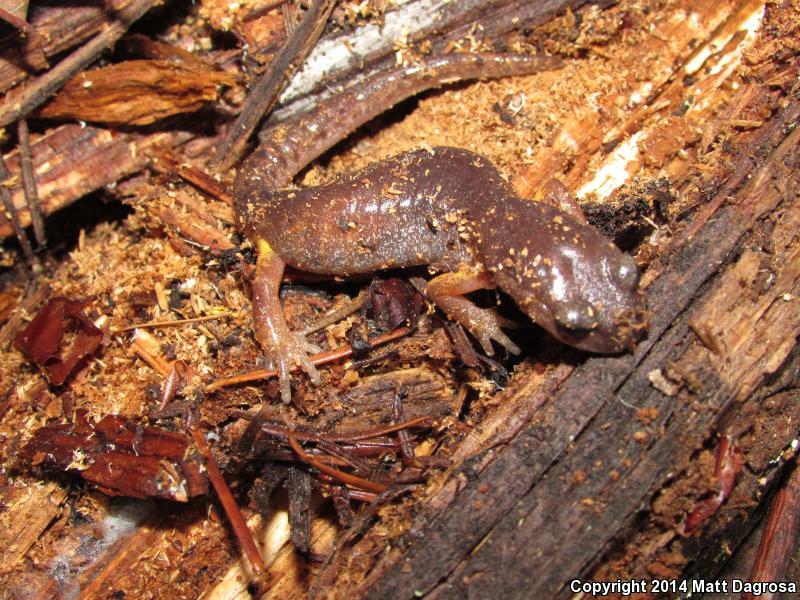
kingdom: Animalia
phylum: Chordata
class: Amphibia
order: Caudata
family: Plethodontidae
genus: Ensatina
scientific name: Ensatina eschscholtzii
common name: Ensatina
